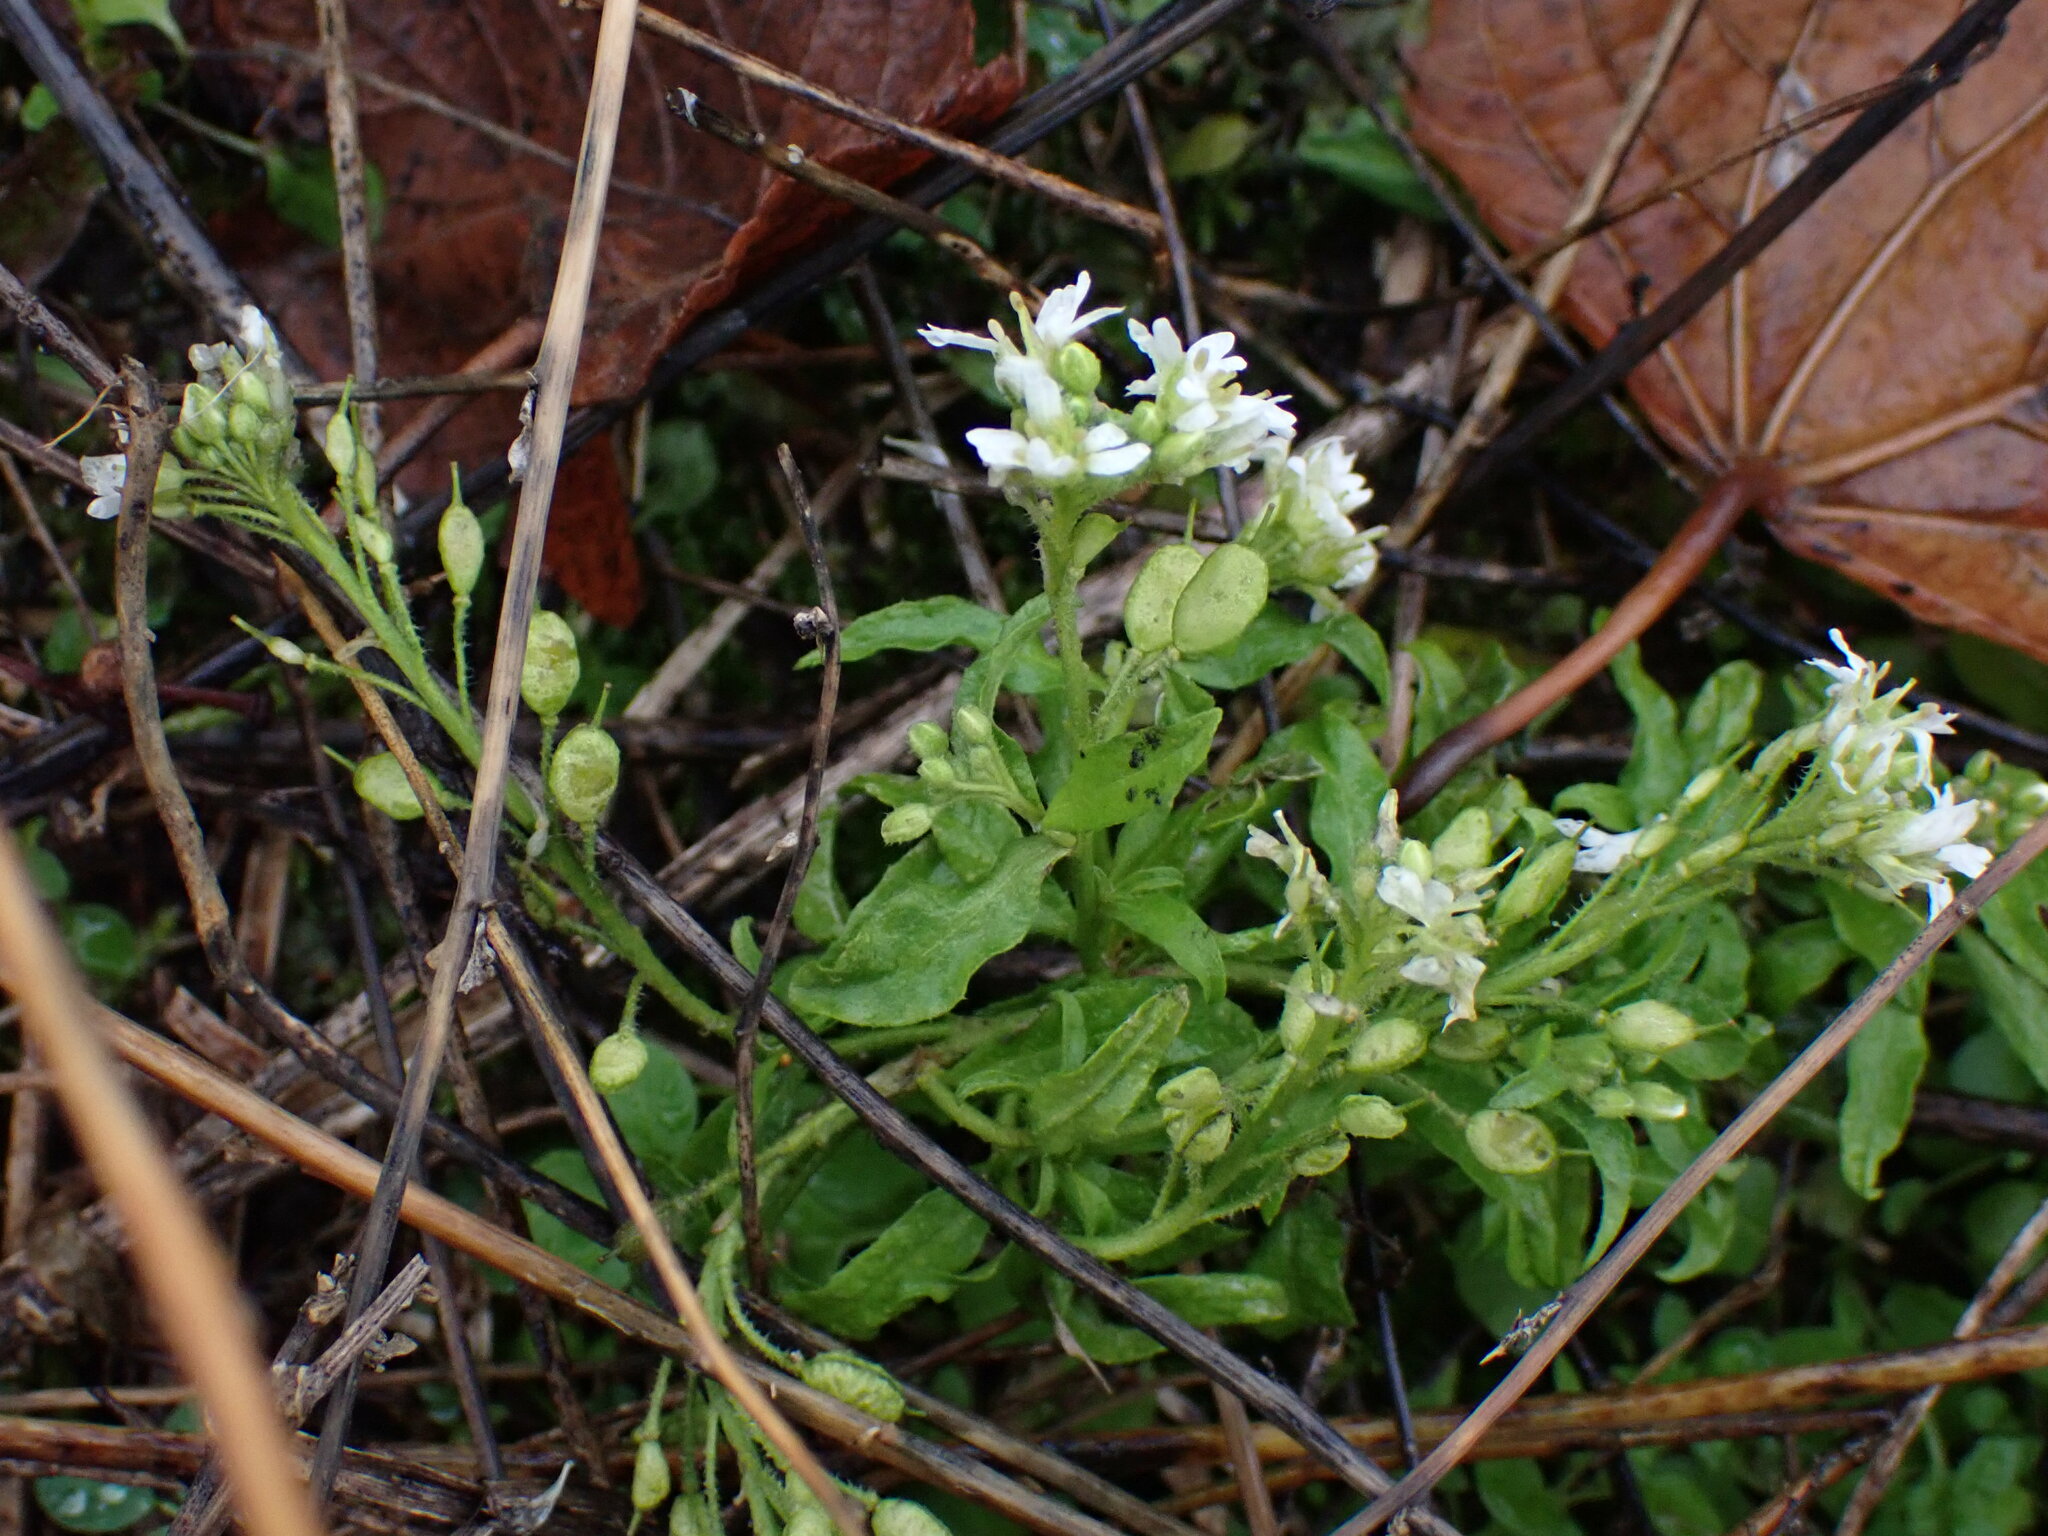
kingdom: Plantae
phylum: Tracheophyta
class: Magnoliopsida
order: Brassicales
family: Brassicaceae
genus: Berteroa
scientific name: Berteroa incana
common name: Hoary alison
